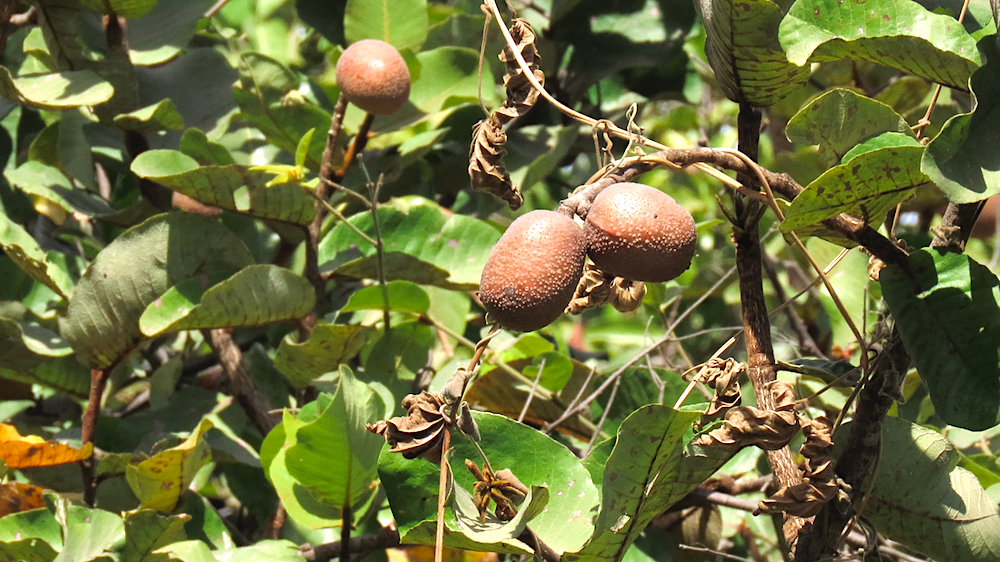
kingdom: Plantae
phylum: Tracheophyta
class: Magnoliopsida
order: Malpighiales
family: Chrysobalanaceae
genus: Neocarya
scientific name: Neocarya macrophylla
